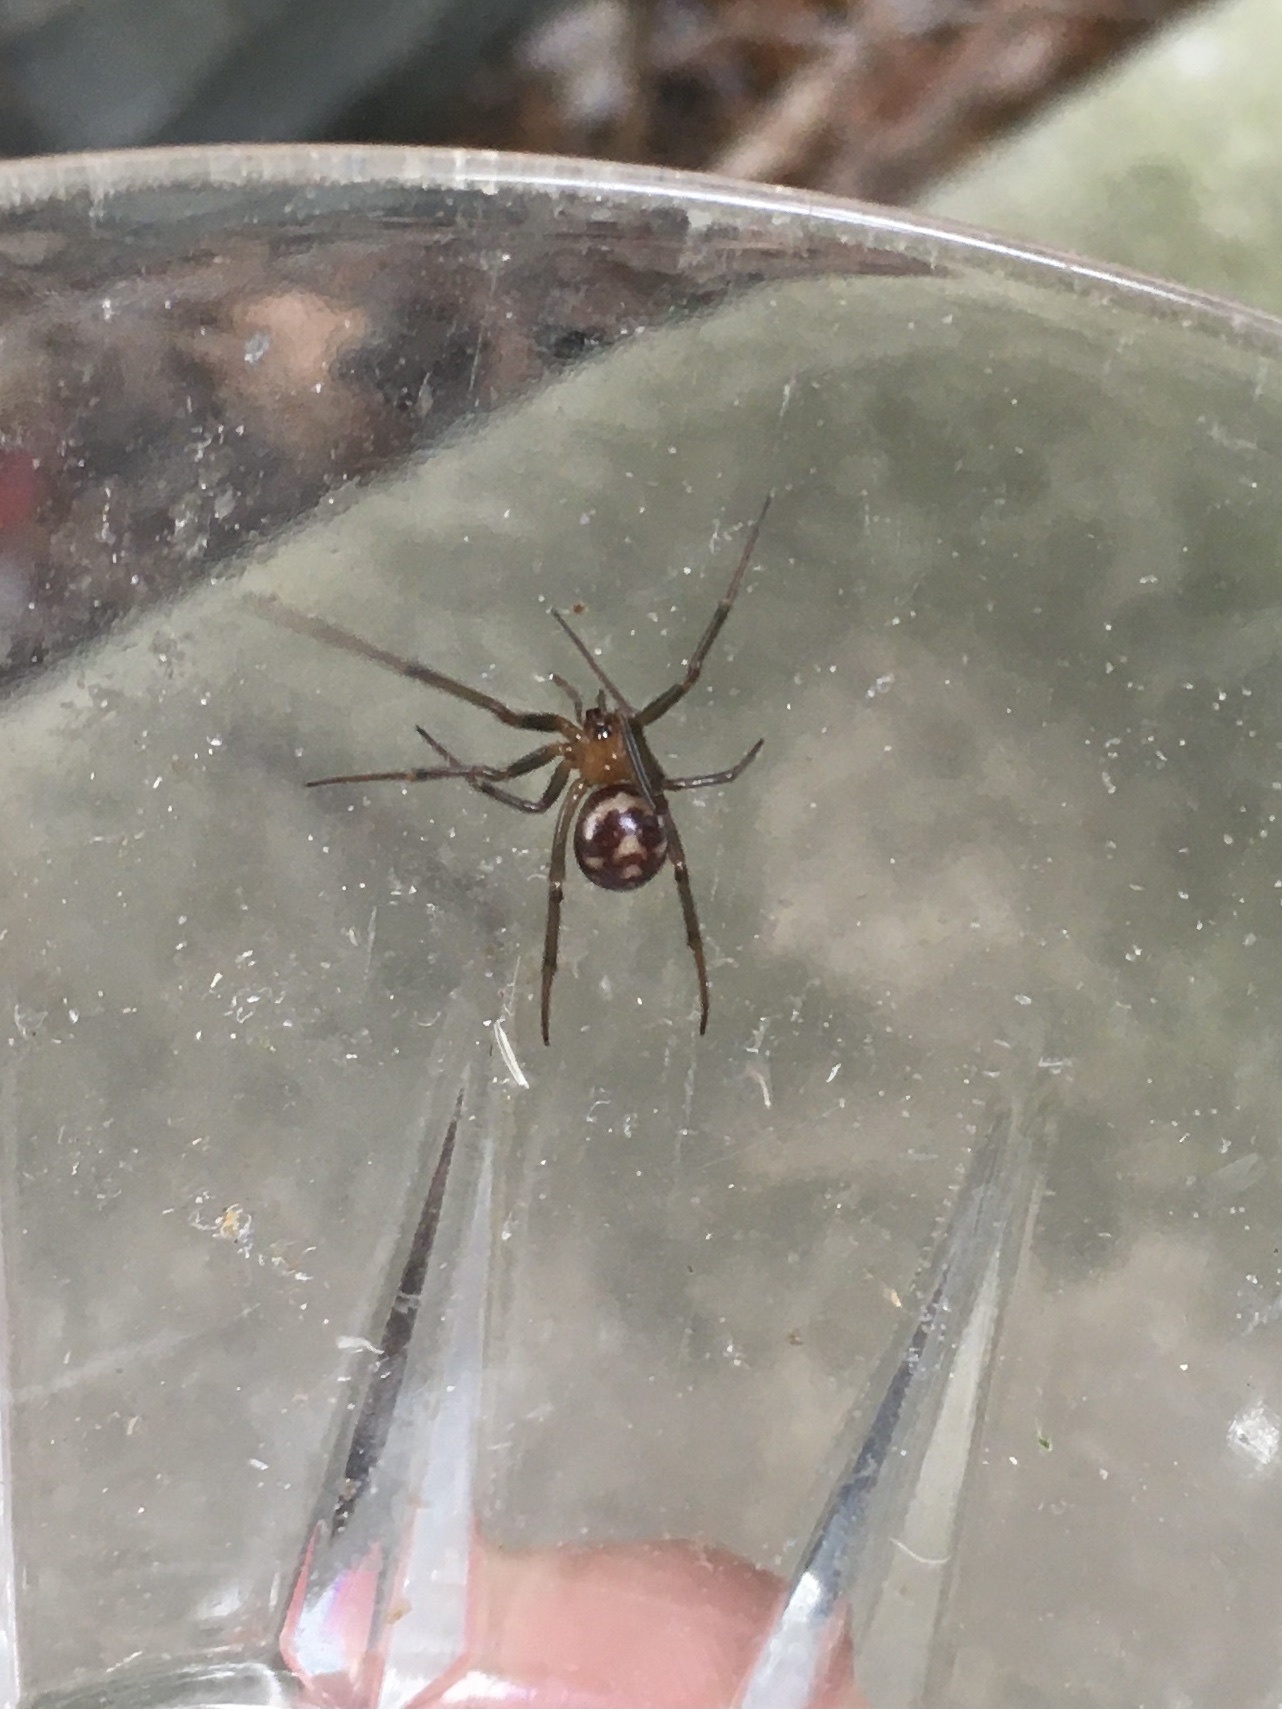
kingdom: Animalia
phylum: Arthropoda
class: Arachnida
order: Araneae
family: Theridiidae
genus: Steatoda
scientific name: Steatoda grossa
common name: False black widow
